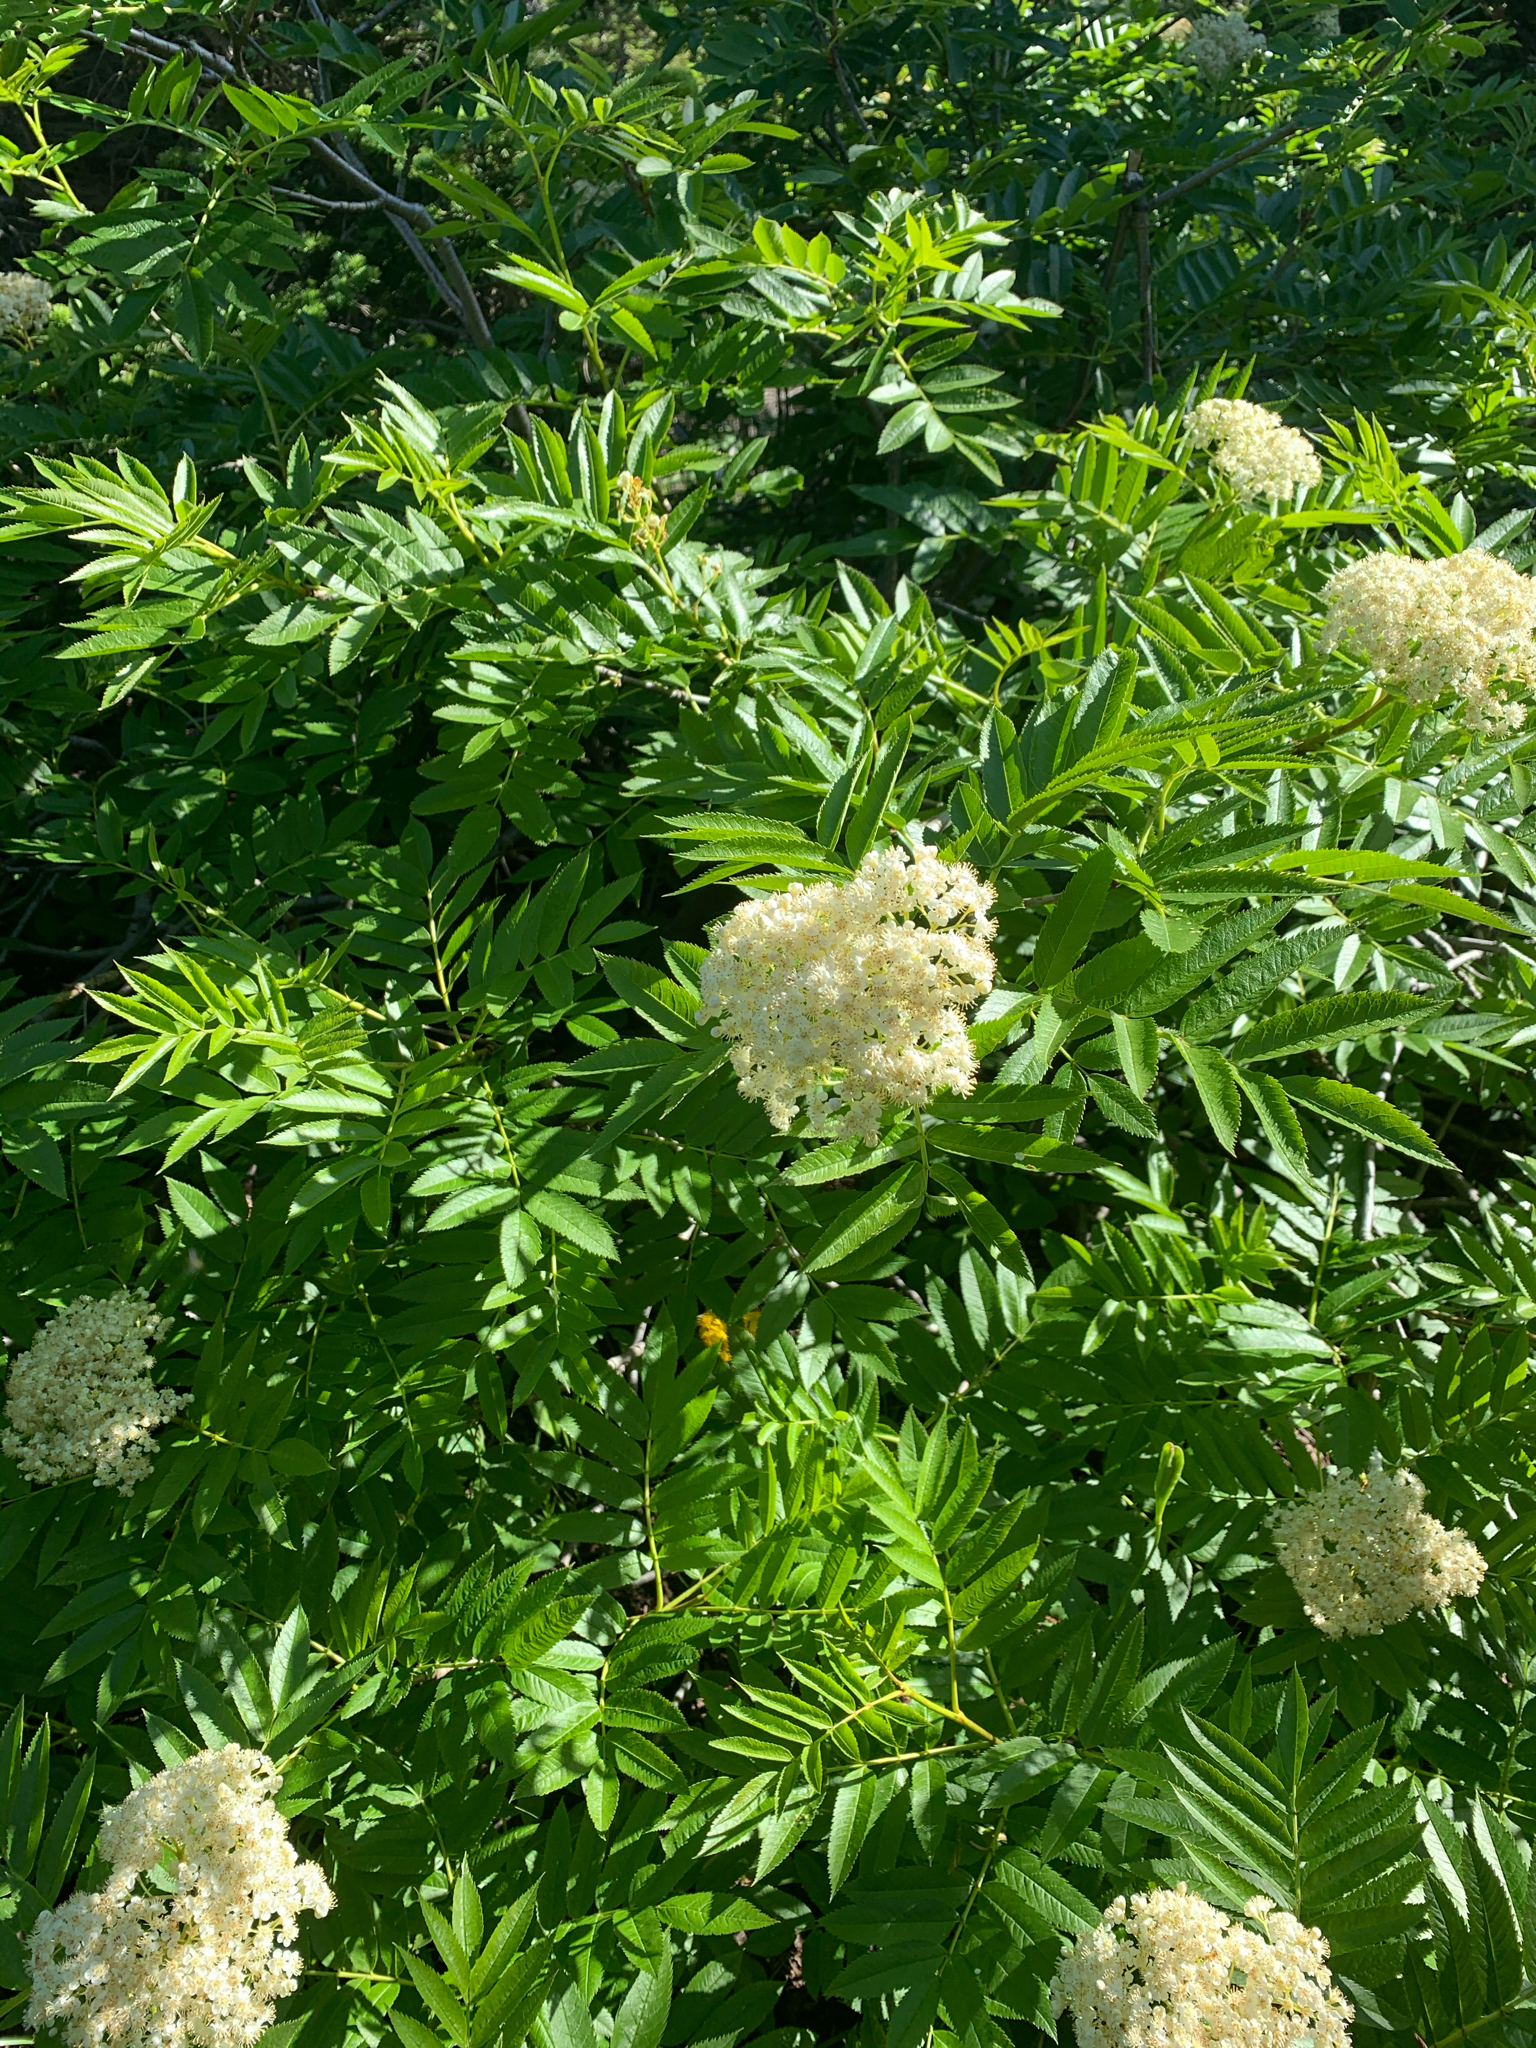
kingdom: Plantae
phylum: Tracheophyta
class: Magnoliopsida
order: Rosales
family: Rosaceae
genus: Sorbus
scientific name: Sorbus scopulina
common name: Greene's mountain-ash
